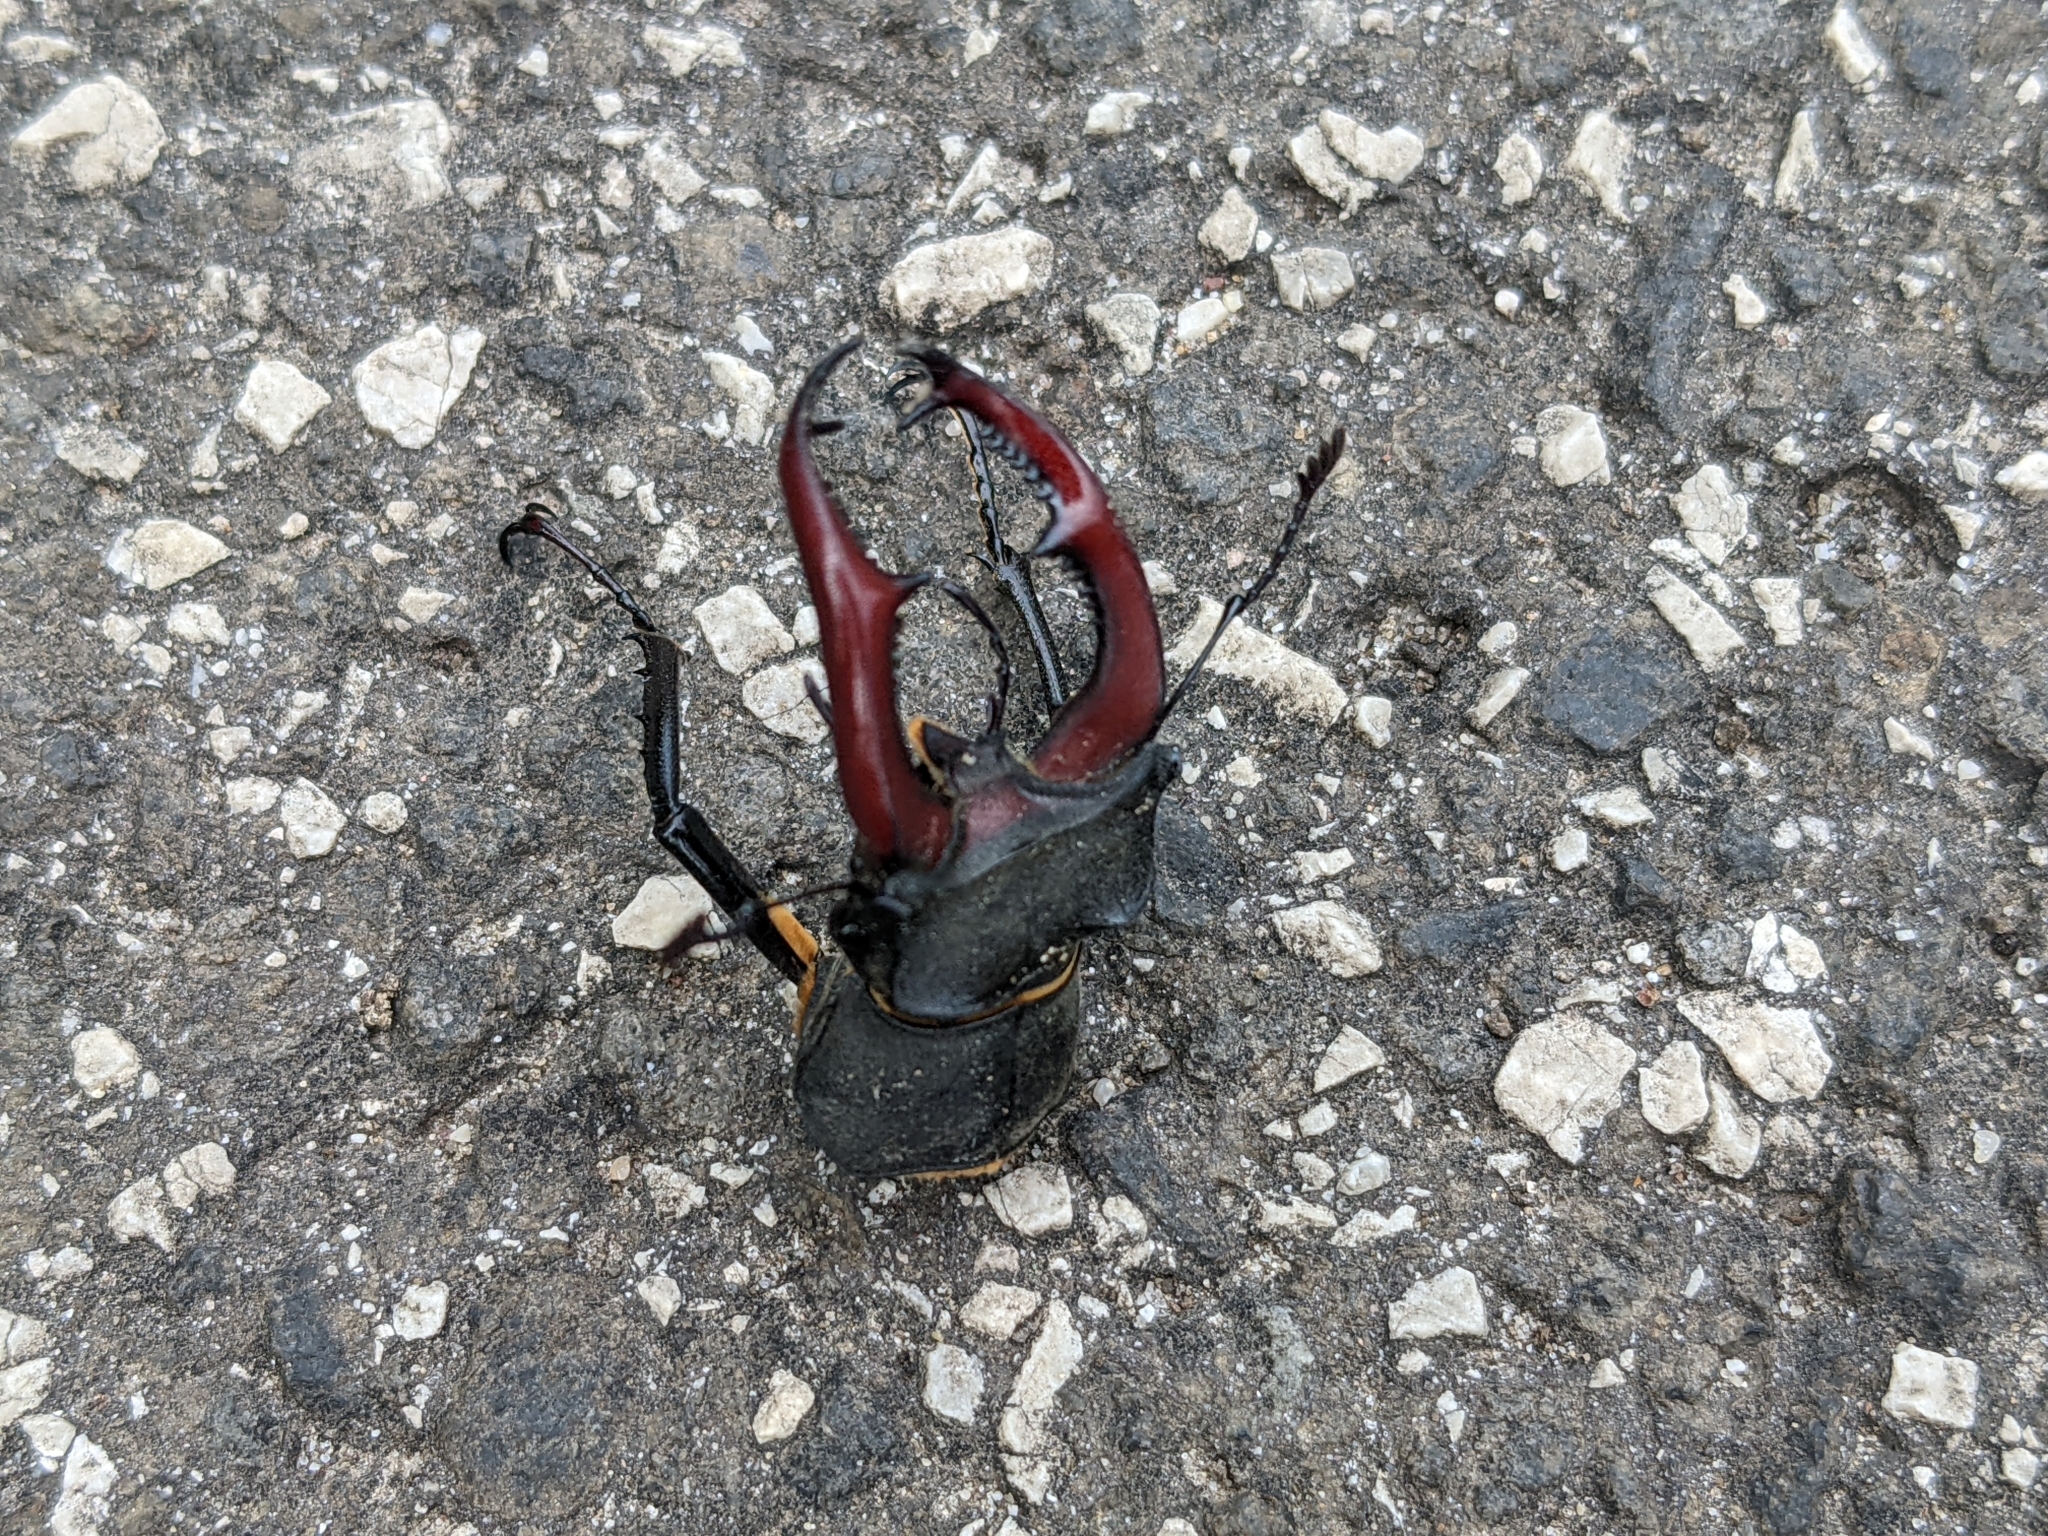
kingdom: Animalia
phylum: Arthropoda
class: Insecta
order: Coleoptera
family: Lucanidae
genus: Lucanus
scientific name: Lucanus cervus
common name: Stag beetle
